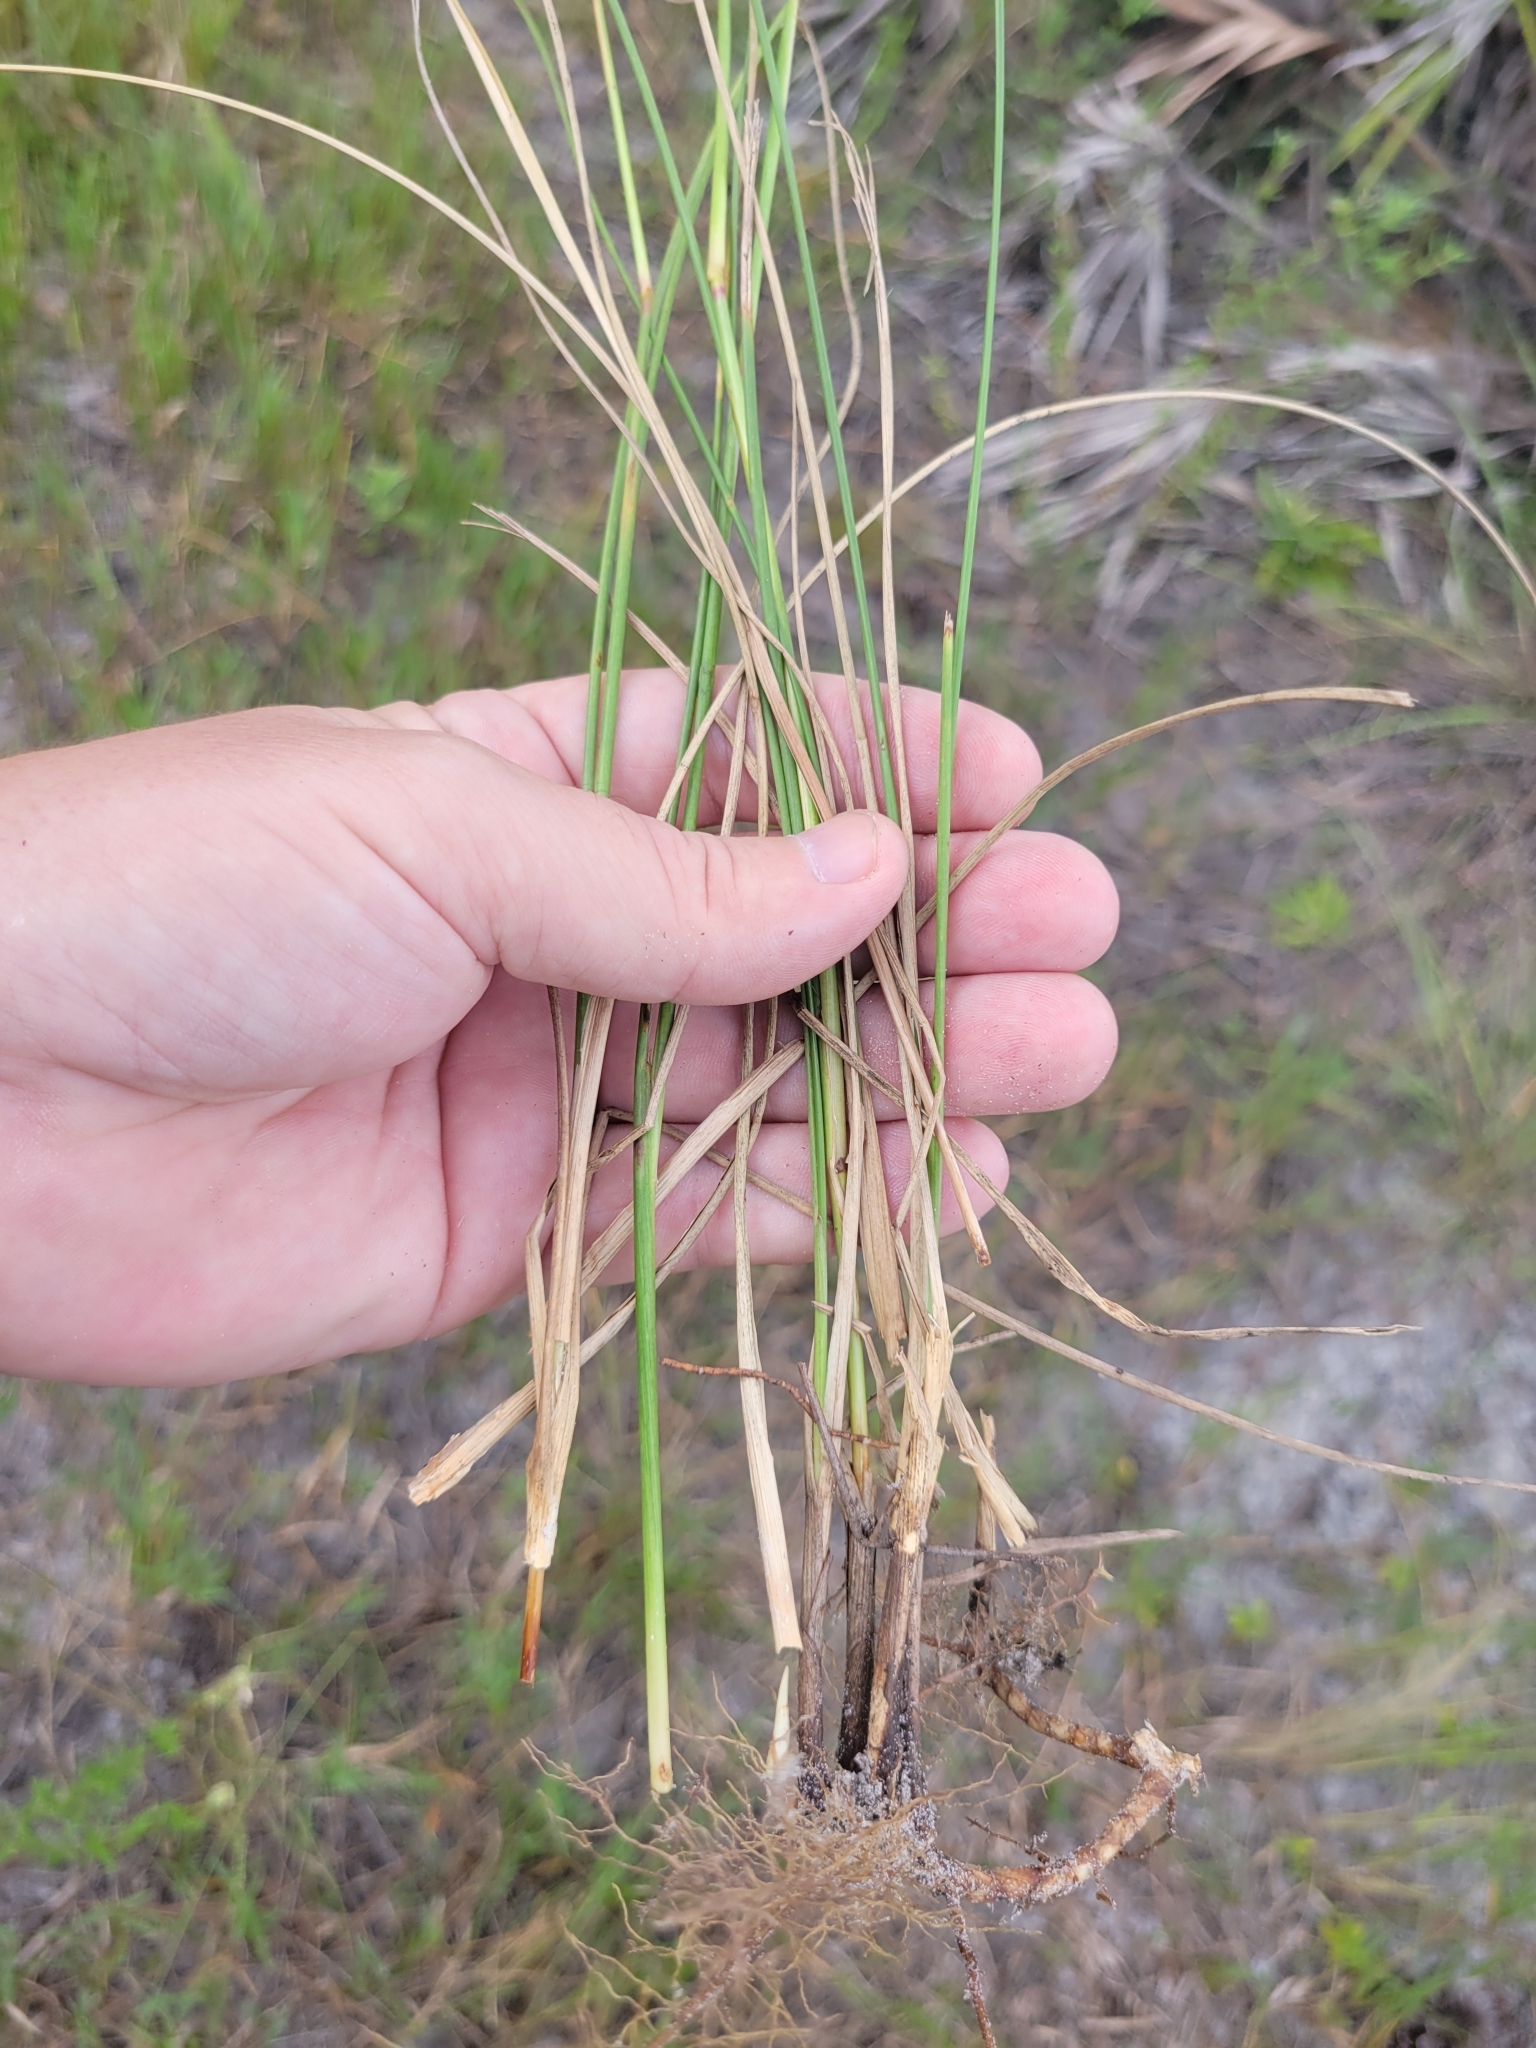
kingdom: Plantae
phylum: Tracheophyta
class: Liliopsida
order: Poales
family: Poaceae
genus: Paspalum
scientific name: Paspalum monostachyum
